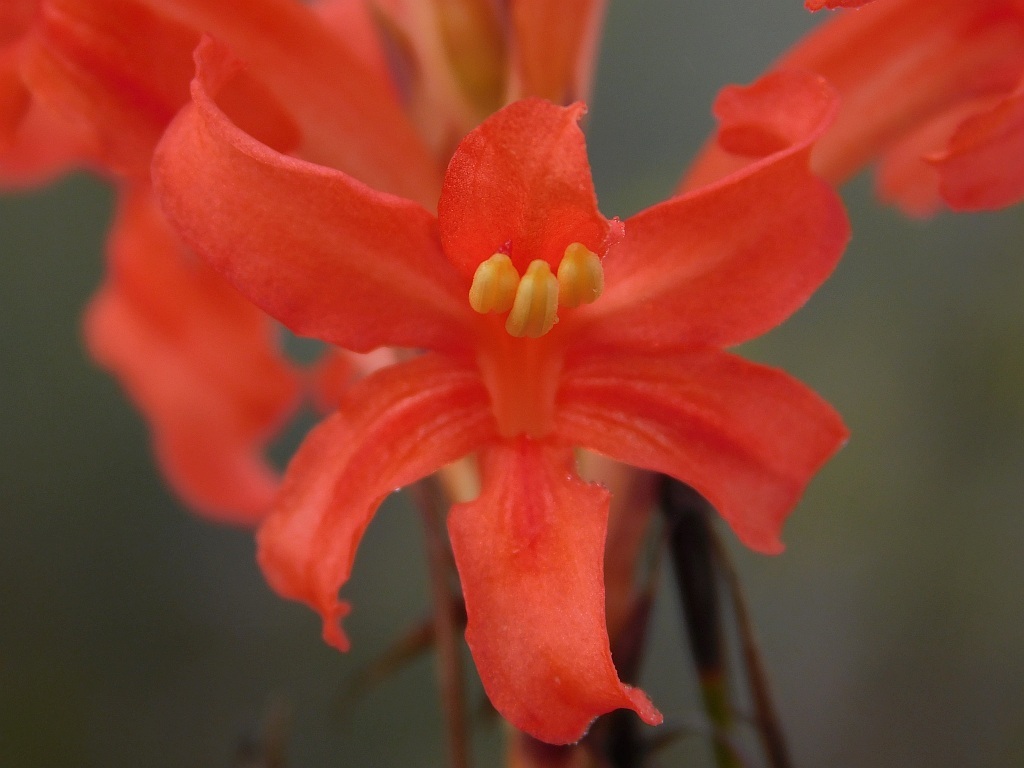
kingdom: Plantae
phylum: Tracheophyta
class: Liliopsida
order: Asparagales
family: Iridaceae
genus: Tritoniopsis
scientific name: Tritoniopsis triticea
